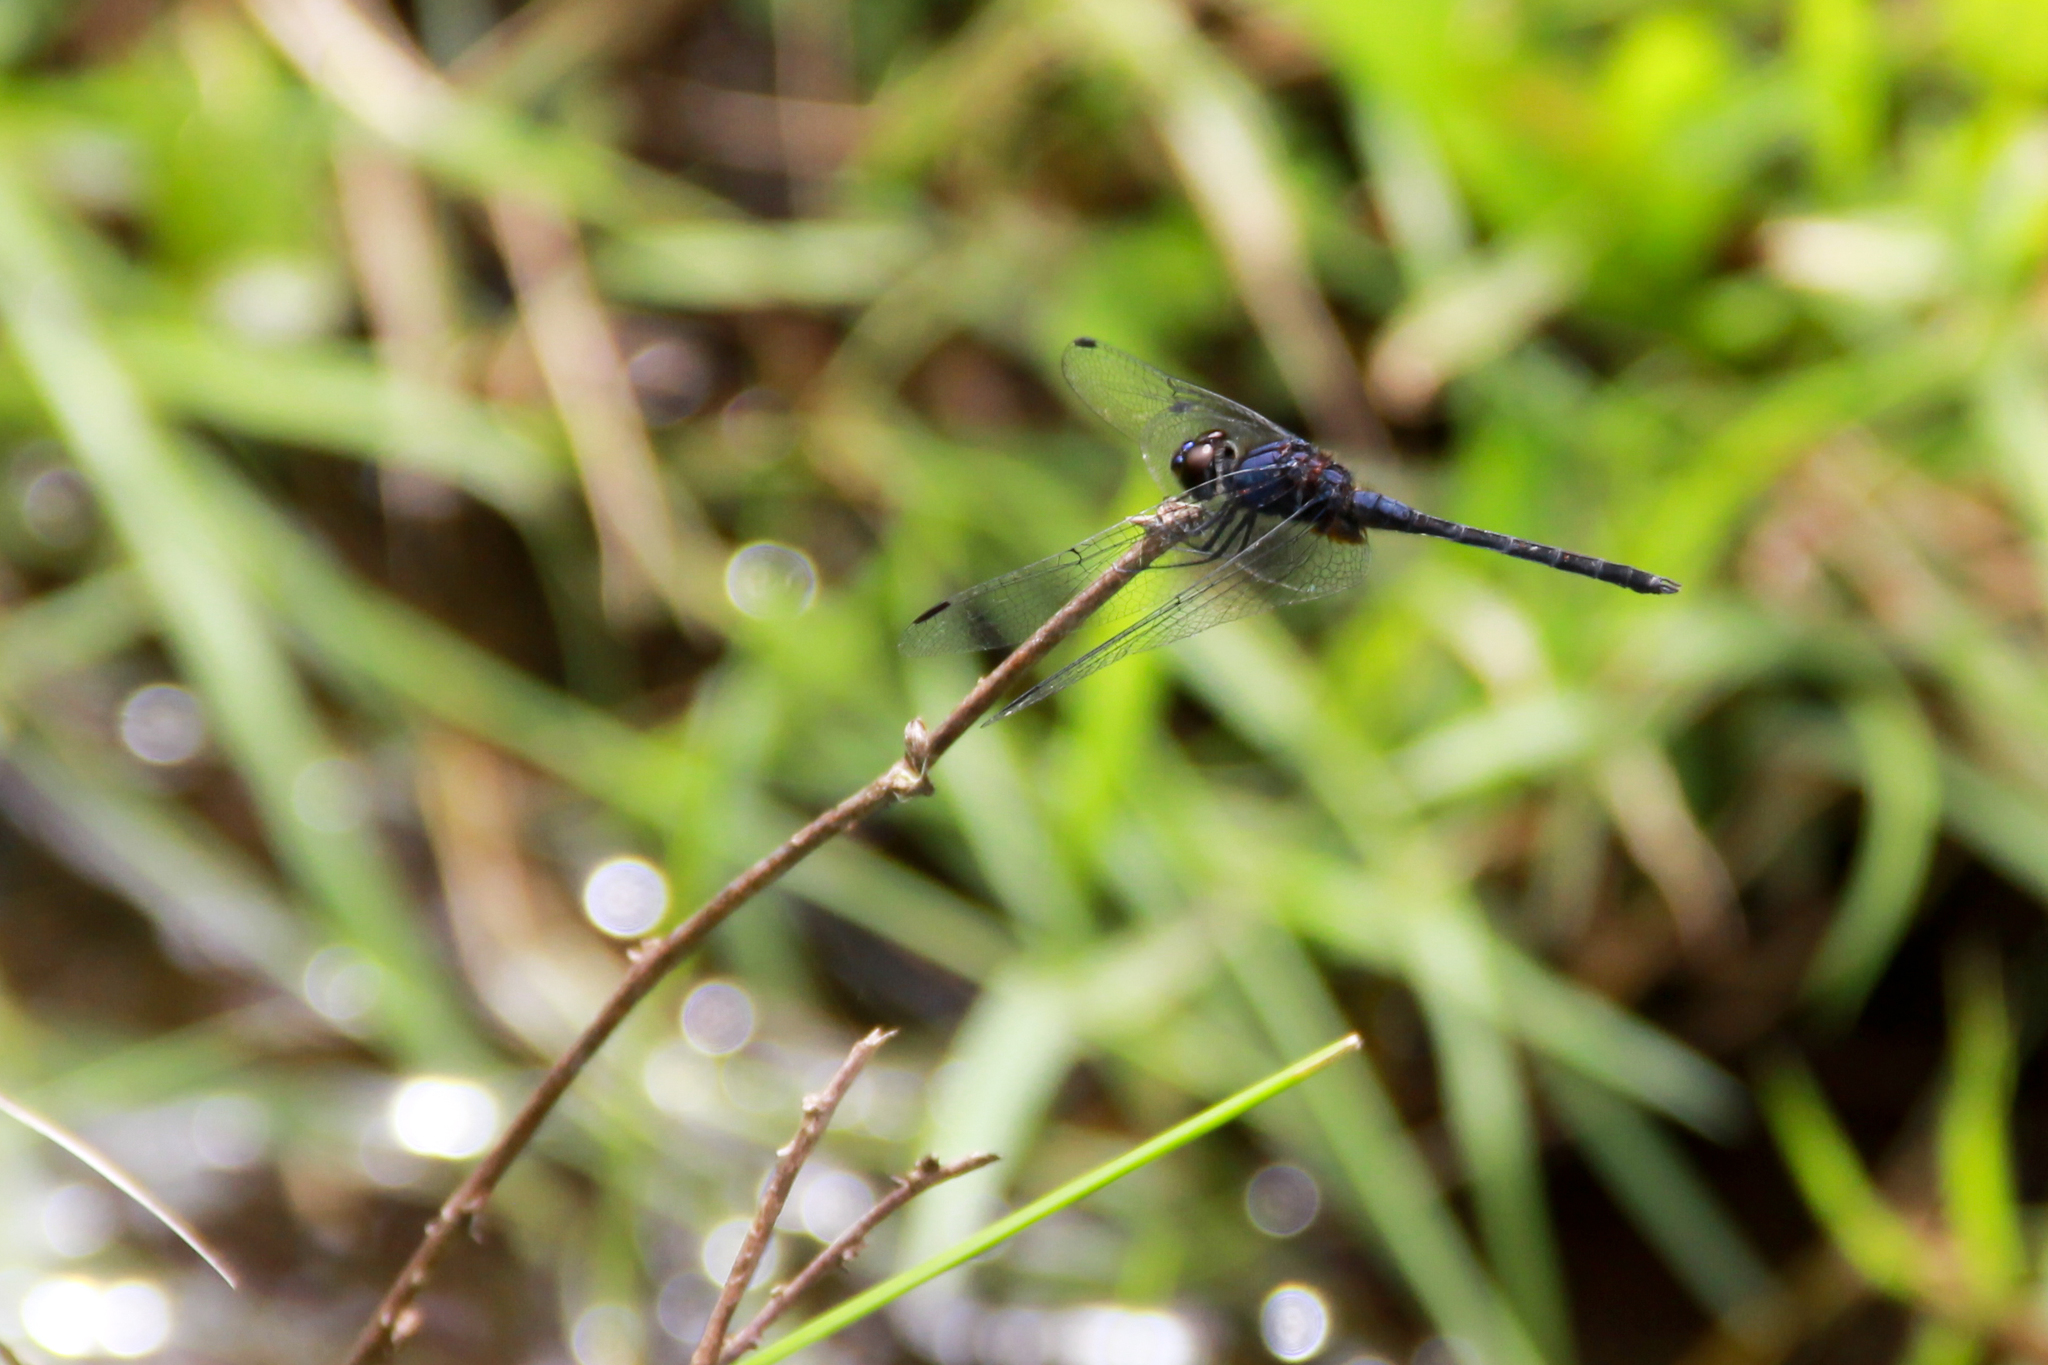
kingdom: Animalia
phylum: Arthropoda
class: Insecta
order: Odonata
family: Libellulidae
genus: Trithemis
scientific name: Trithemis festiva
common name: Indigo dropwing
